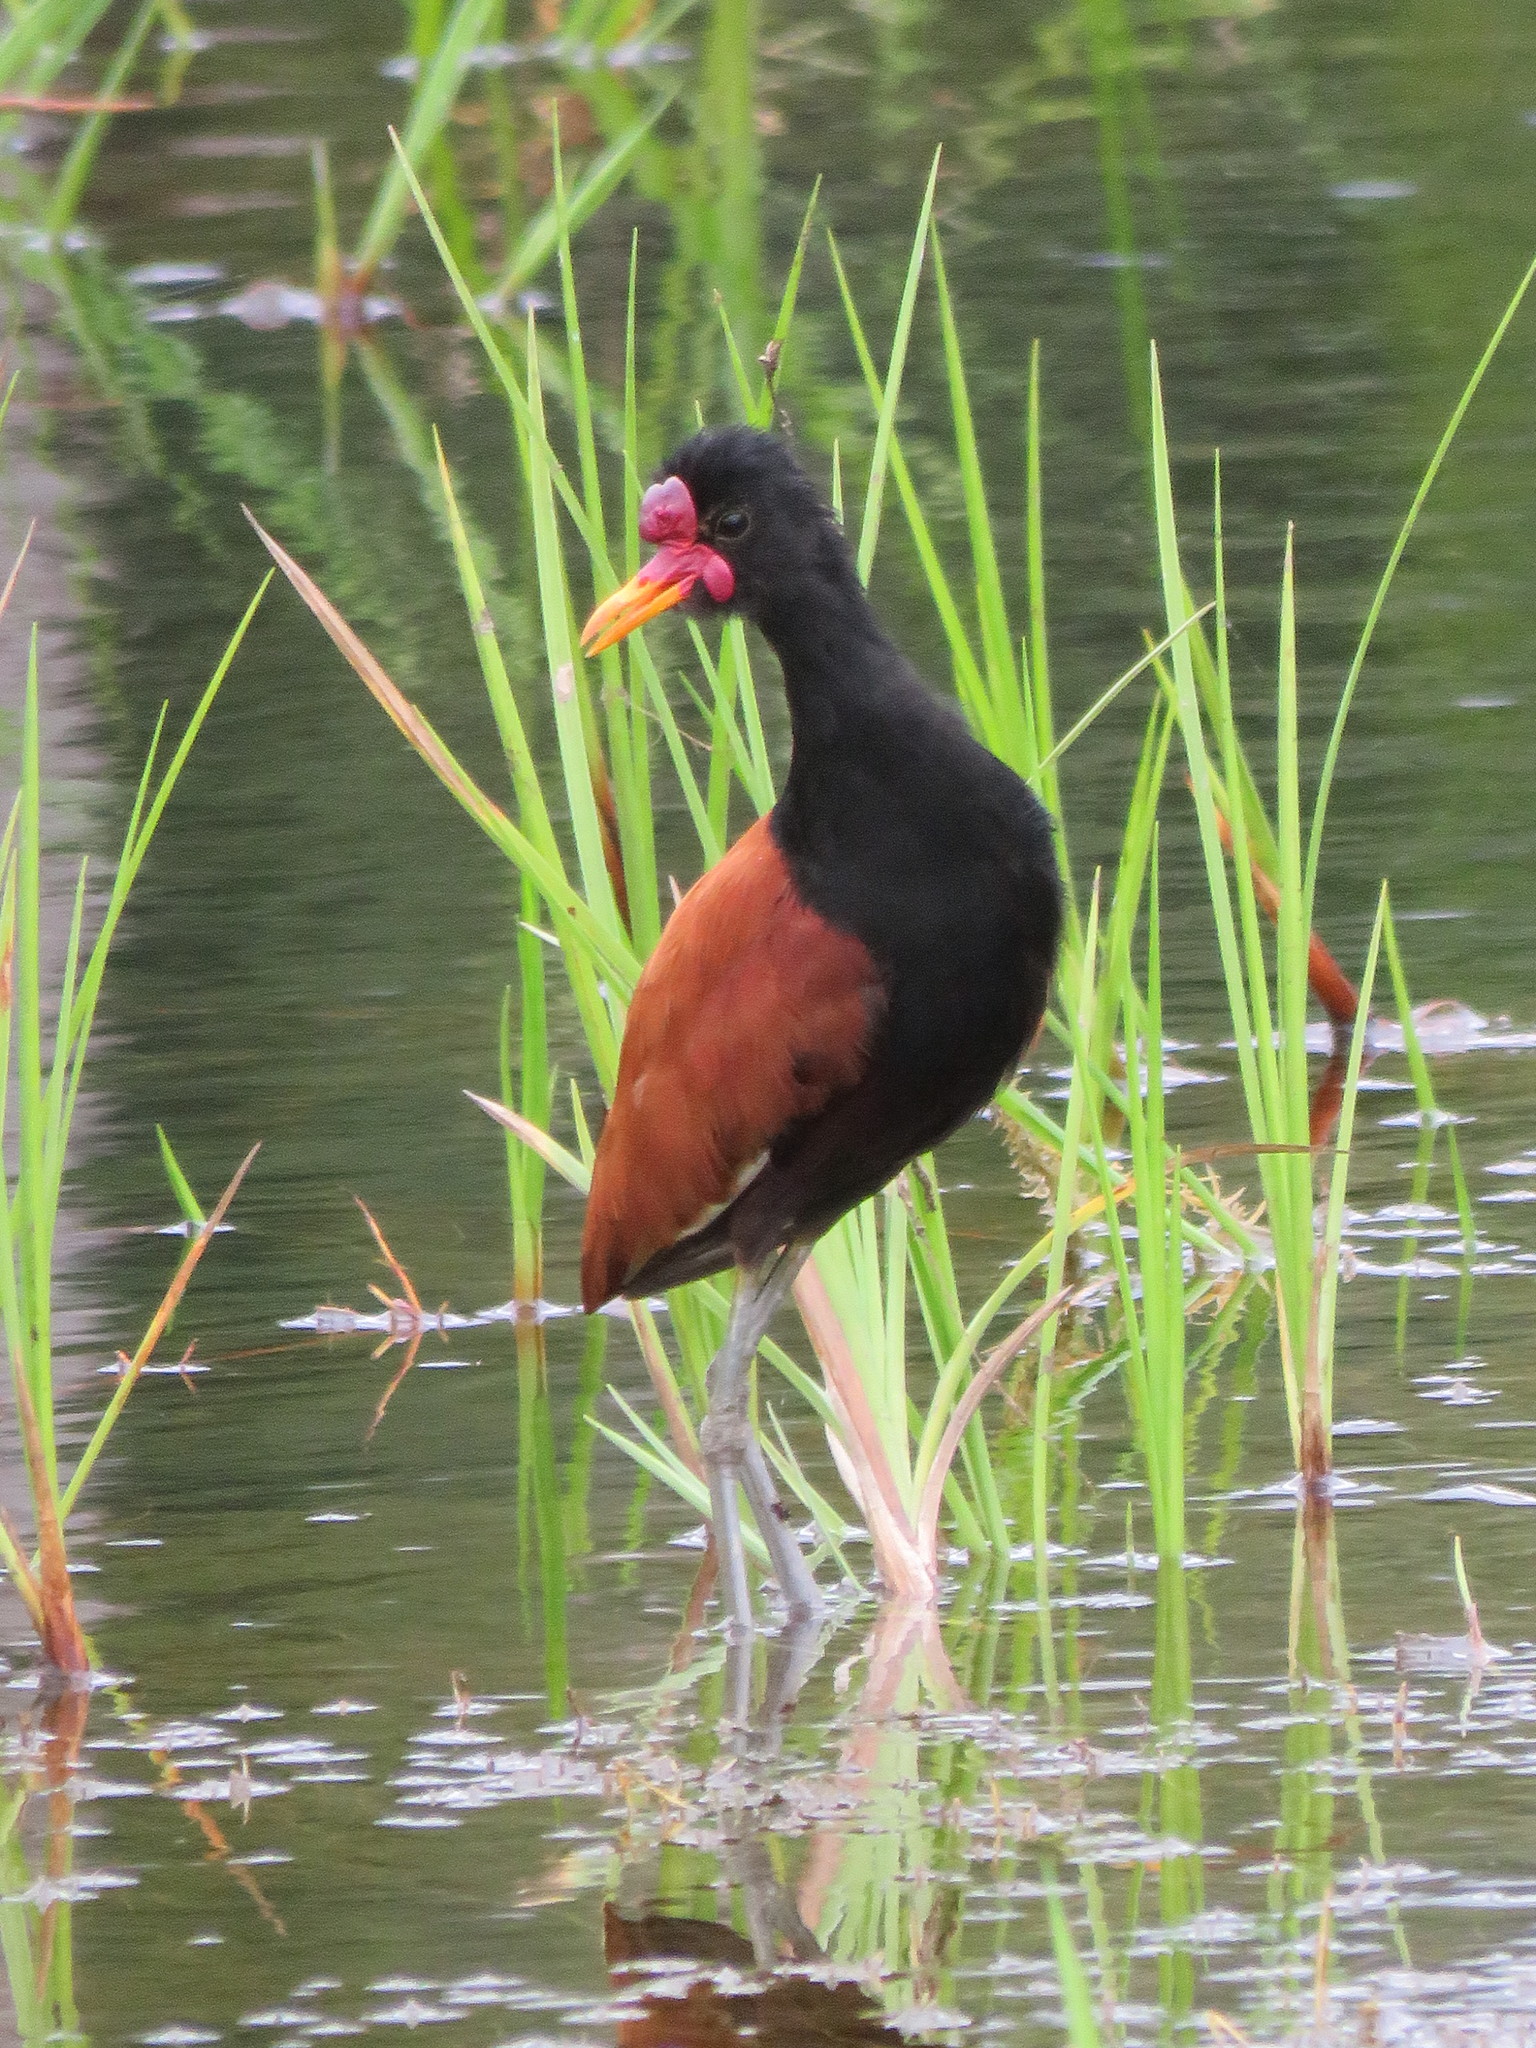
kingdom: Animalia
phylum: Chordata
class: Aves
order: Charadriiformes
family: Jacanidae
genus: Jacana
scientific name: Jacana jacana
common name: Wattled jacana
